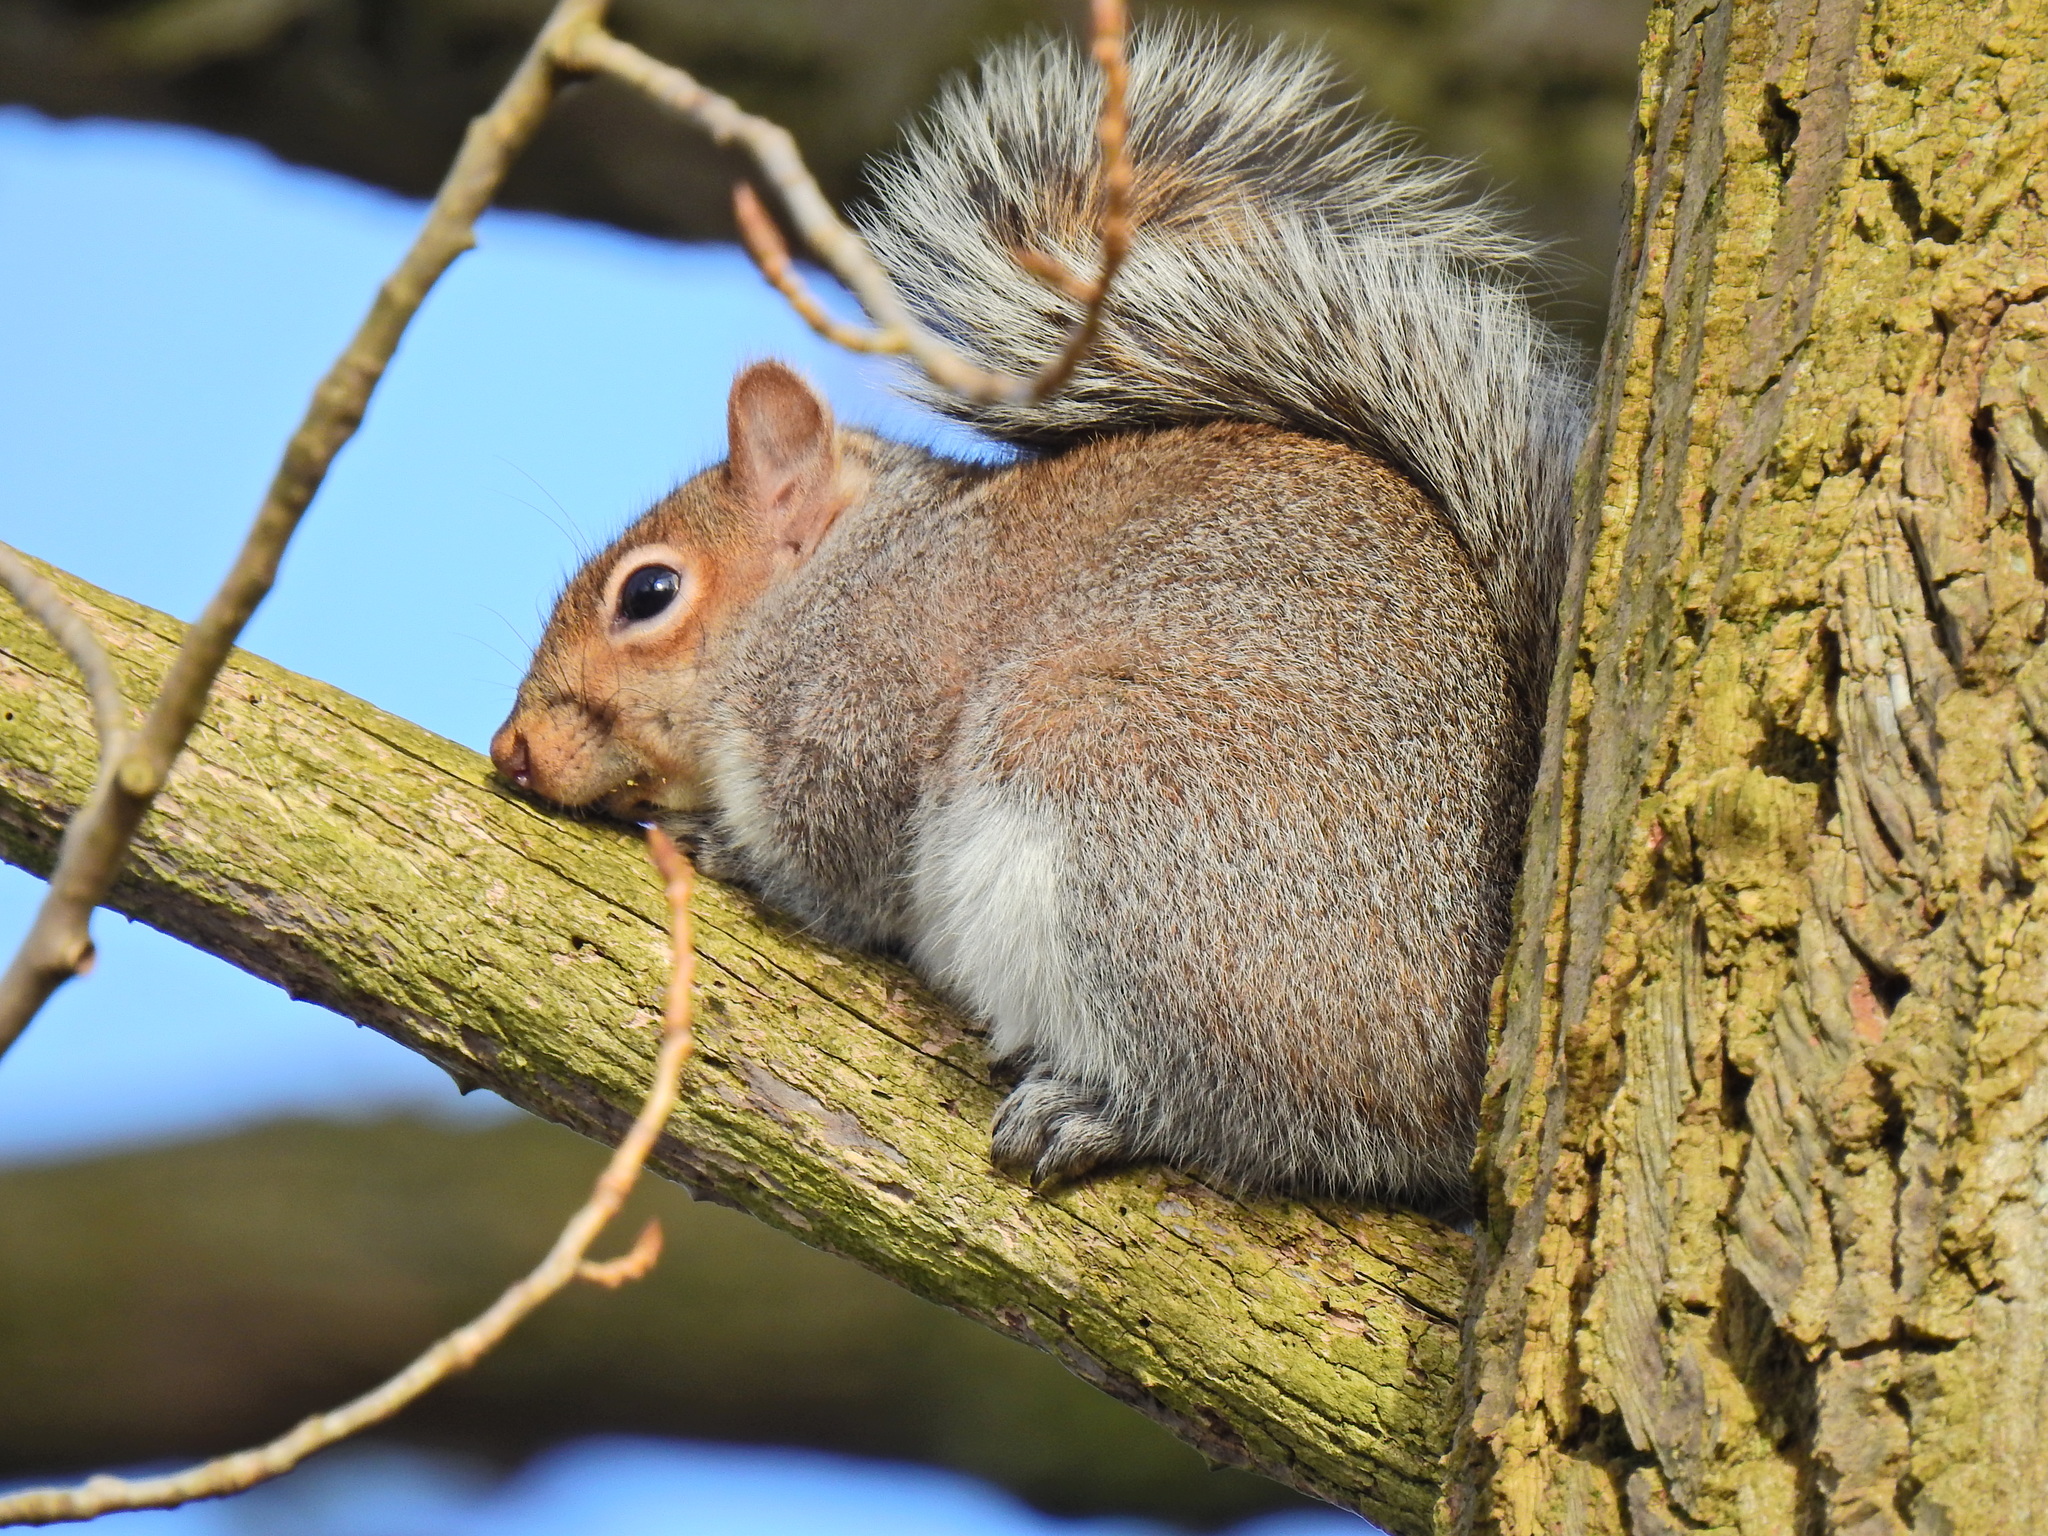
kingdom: Animalia
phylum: Chordata
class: Mammalia
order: Rodentia
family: Sciuridae
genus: Sciurus
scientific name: Sciurus carolinensis
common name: Eastern gray squirrel
